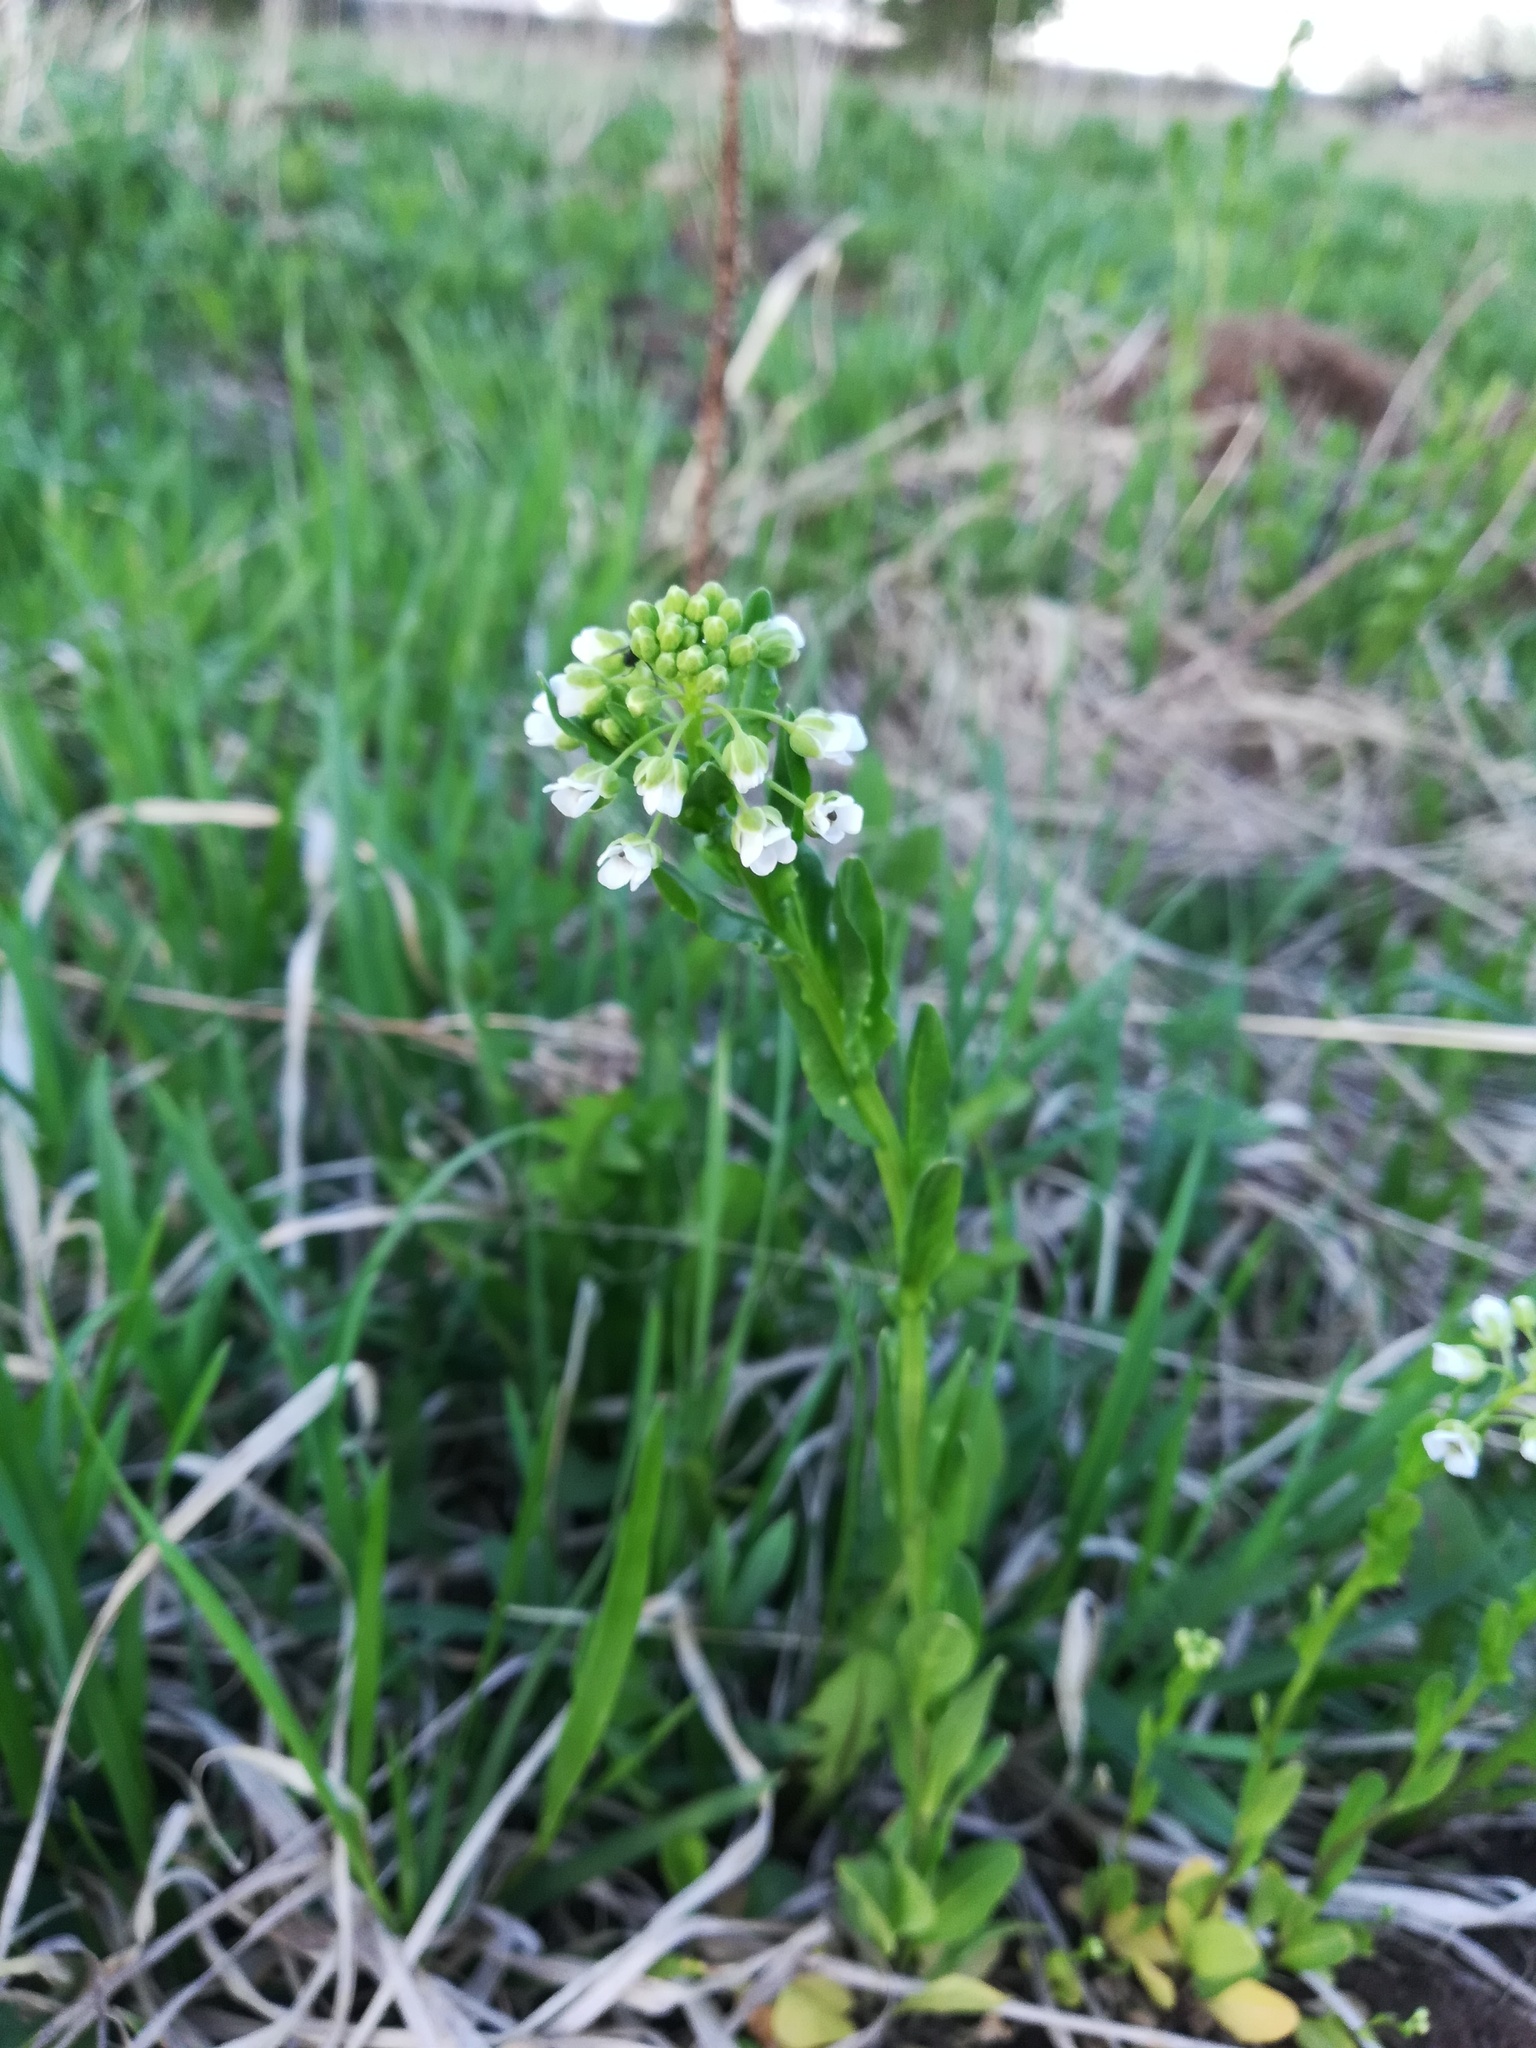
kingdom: Plantae
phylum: Tracheophyta
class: Magnoliopsida
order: Brassicales
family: Brassicaceae
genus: Thlaspi
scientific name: Thlaspi arvense
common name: Field pennycress
